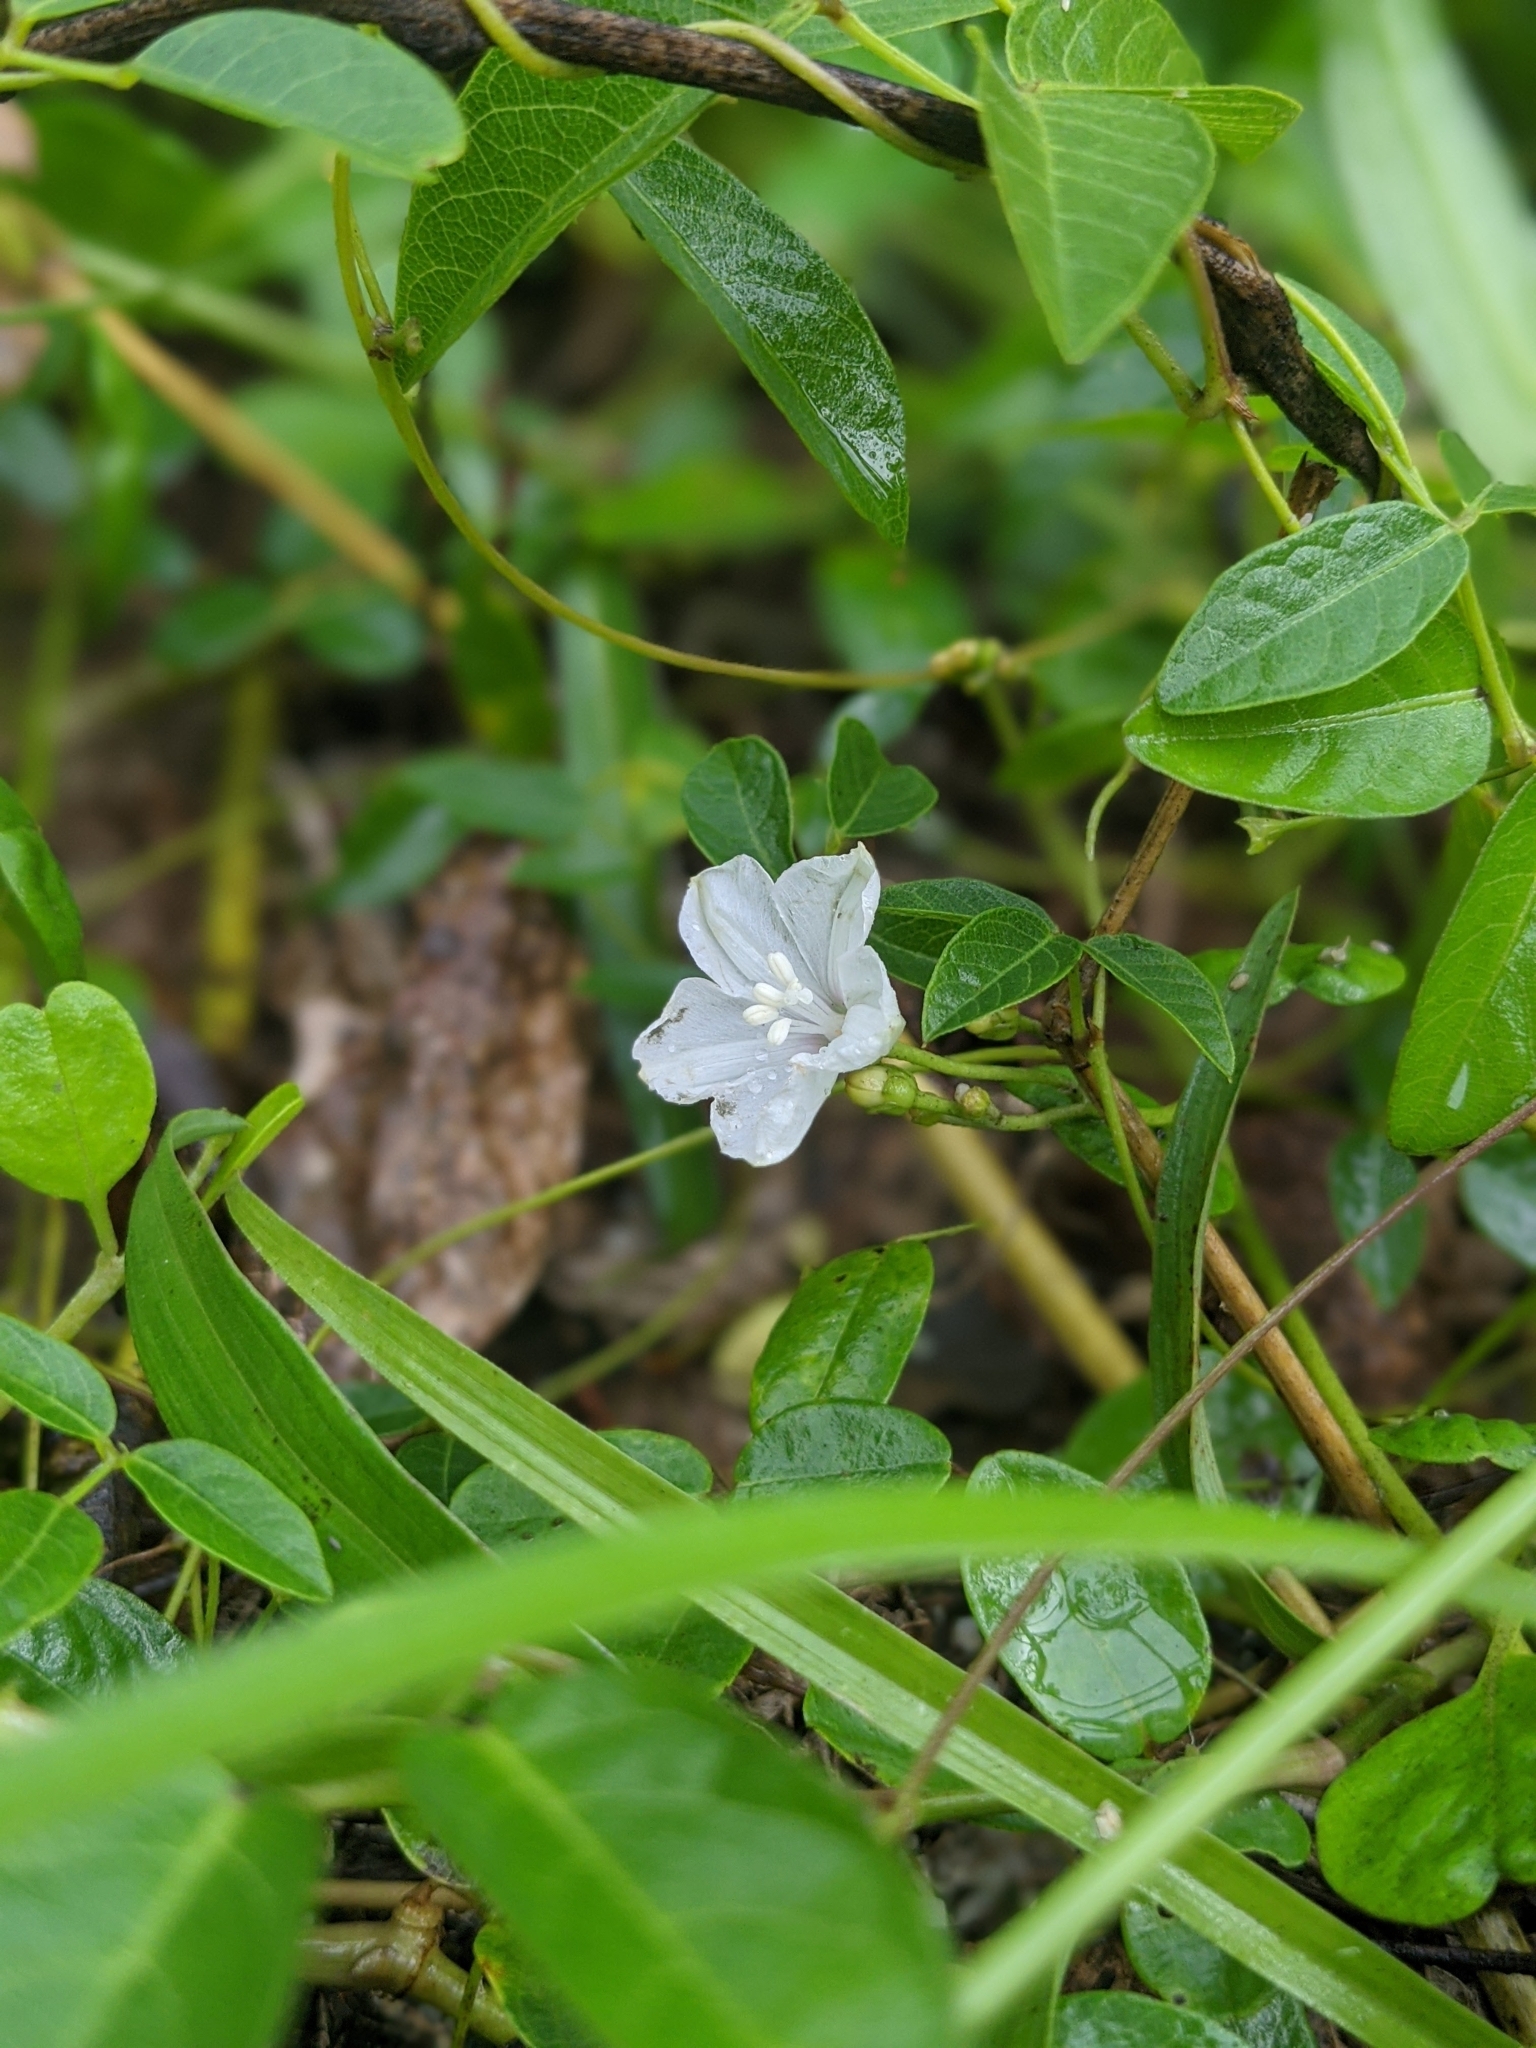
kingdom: Plantae
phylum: Tracheophyta
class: Magnoliopsida
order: Solanales
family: Convolvulaceae
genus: Jacquemontia
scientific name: Jacquemontia reclinata
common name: Beach jacquemontia
